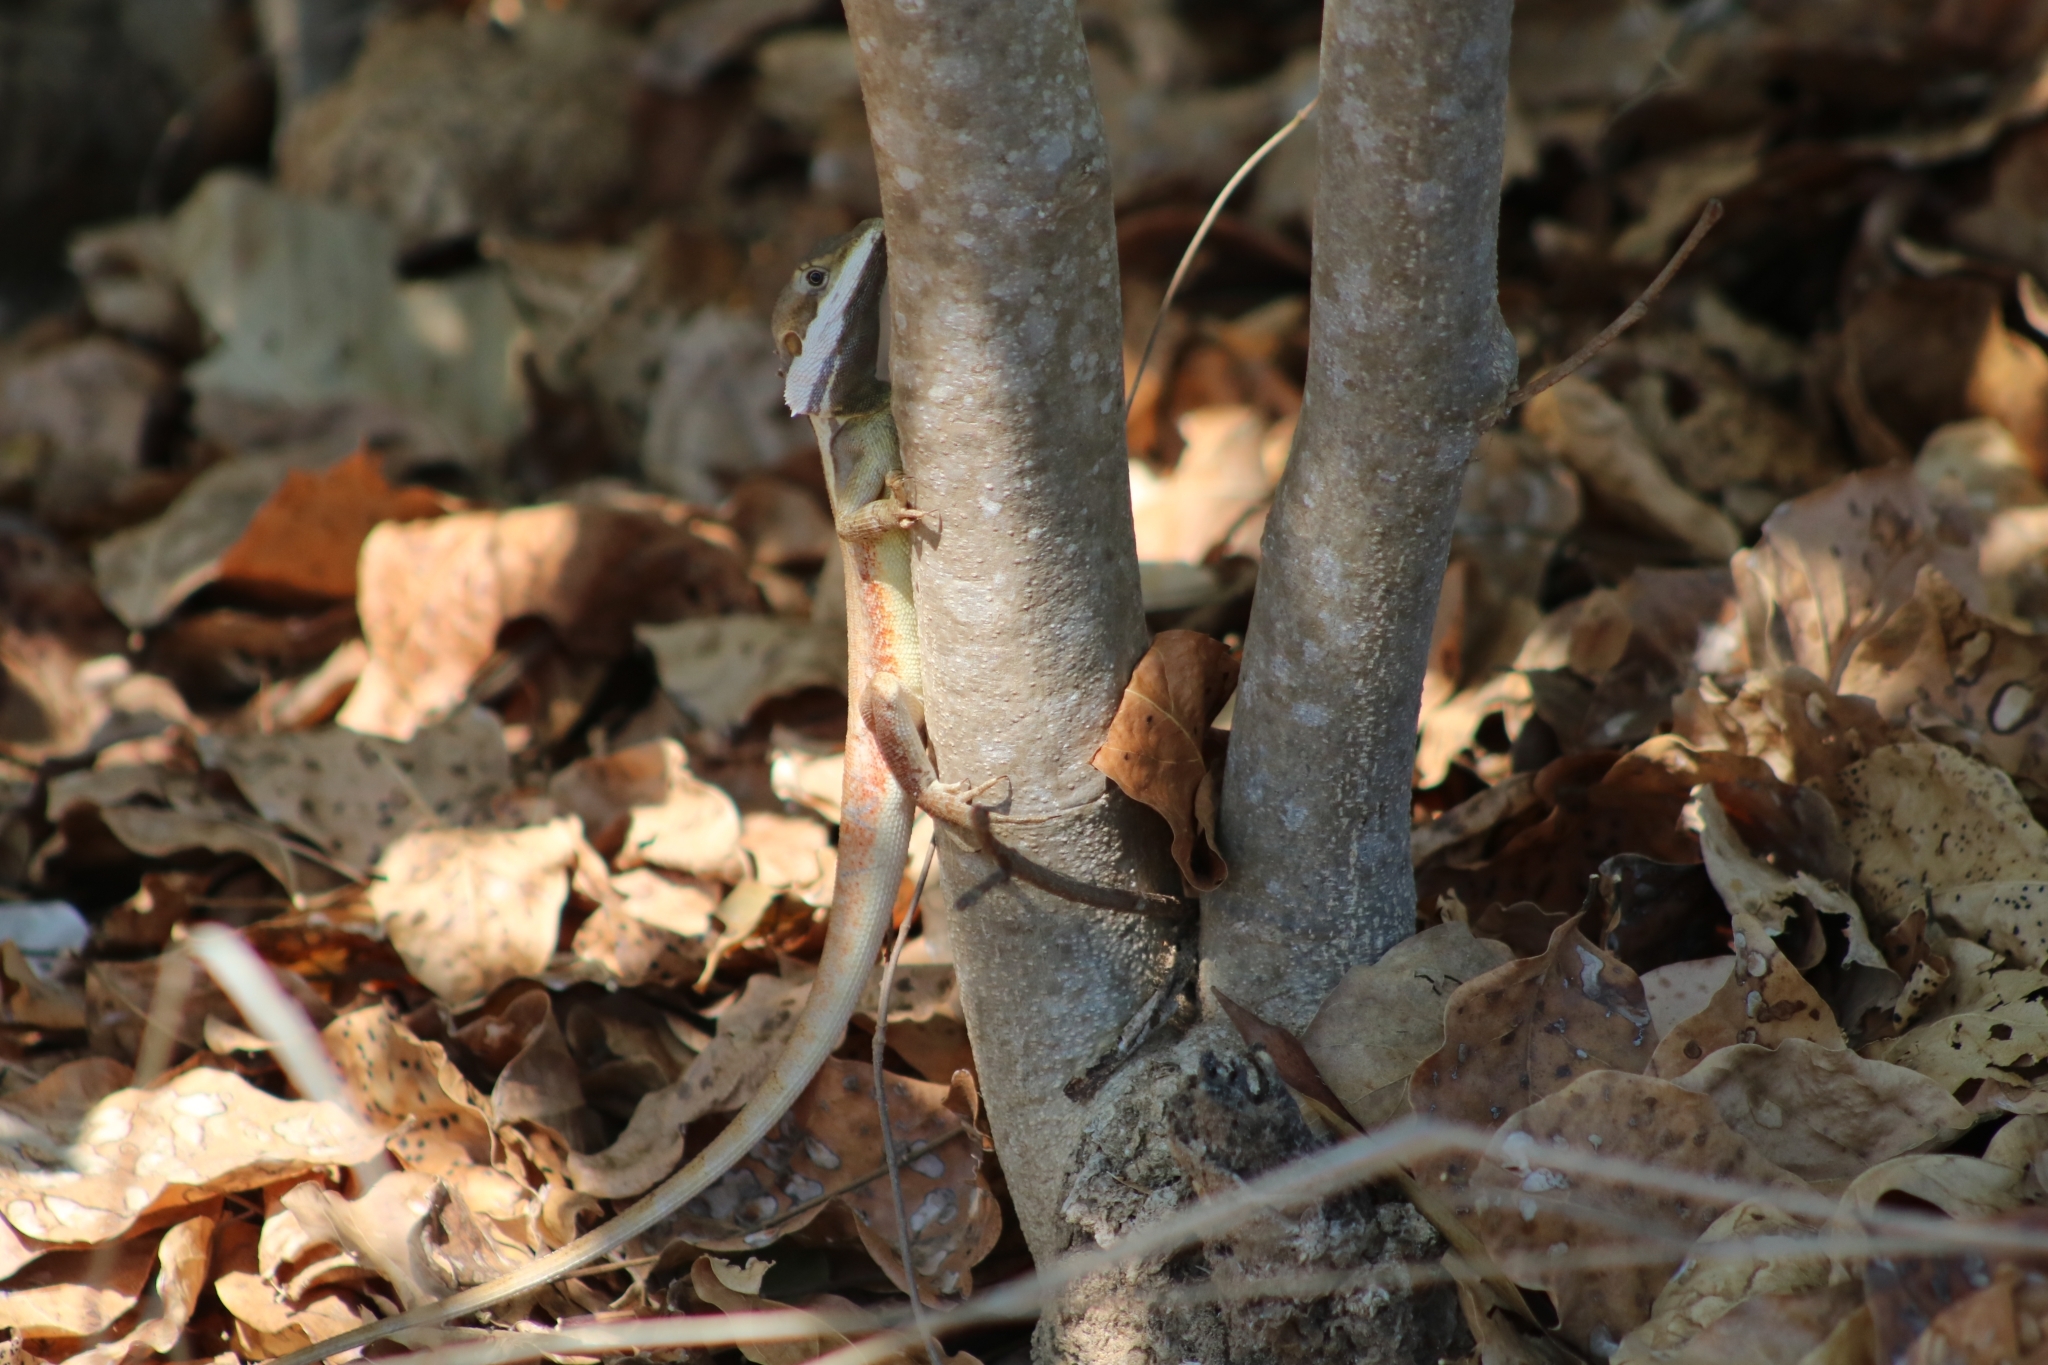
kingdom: Animalia
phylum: Chordata
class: Squamata
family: Agamidae
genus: Tropicagama
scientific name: Tropicagama temporalis
